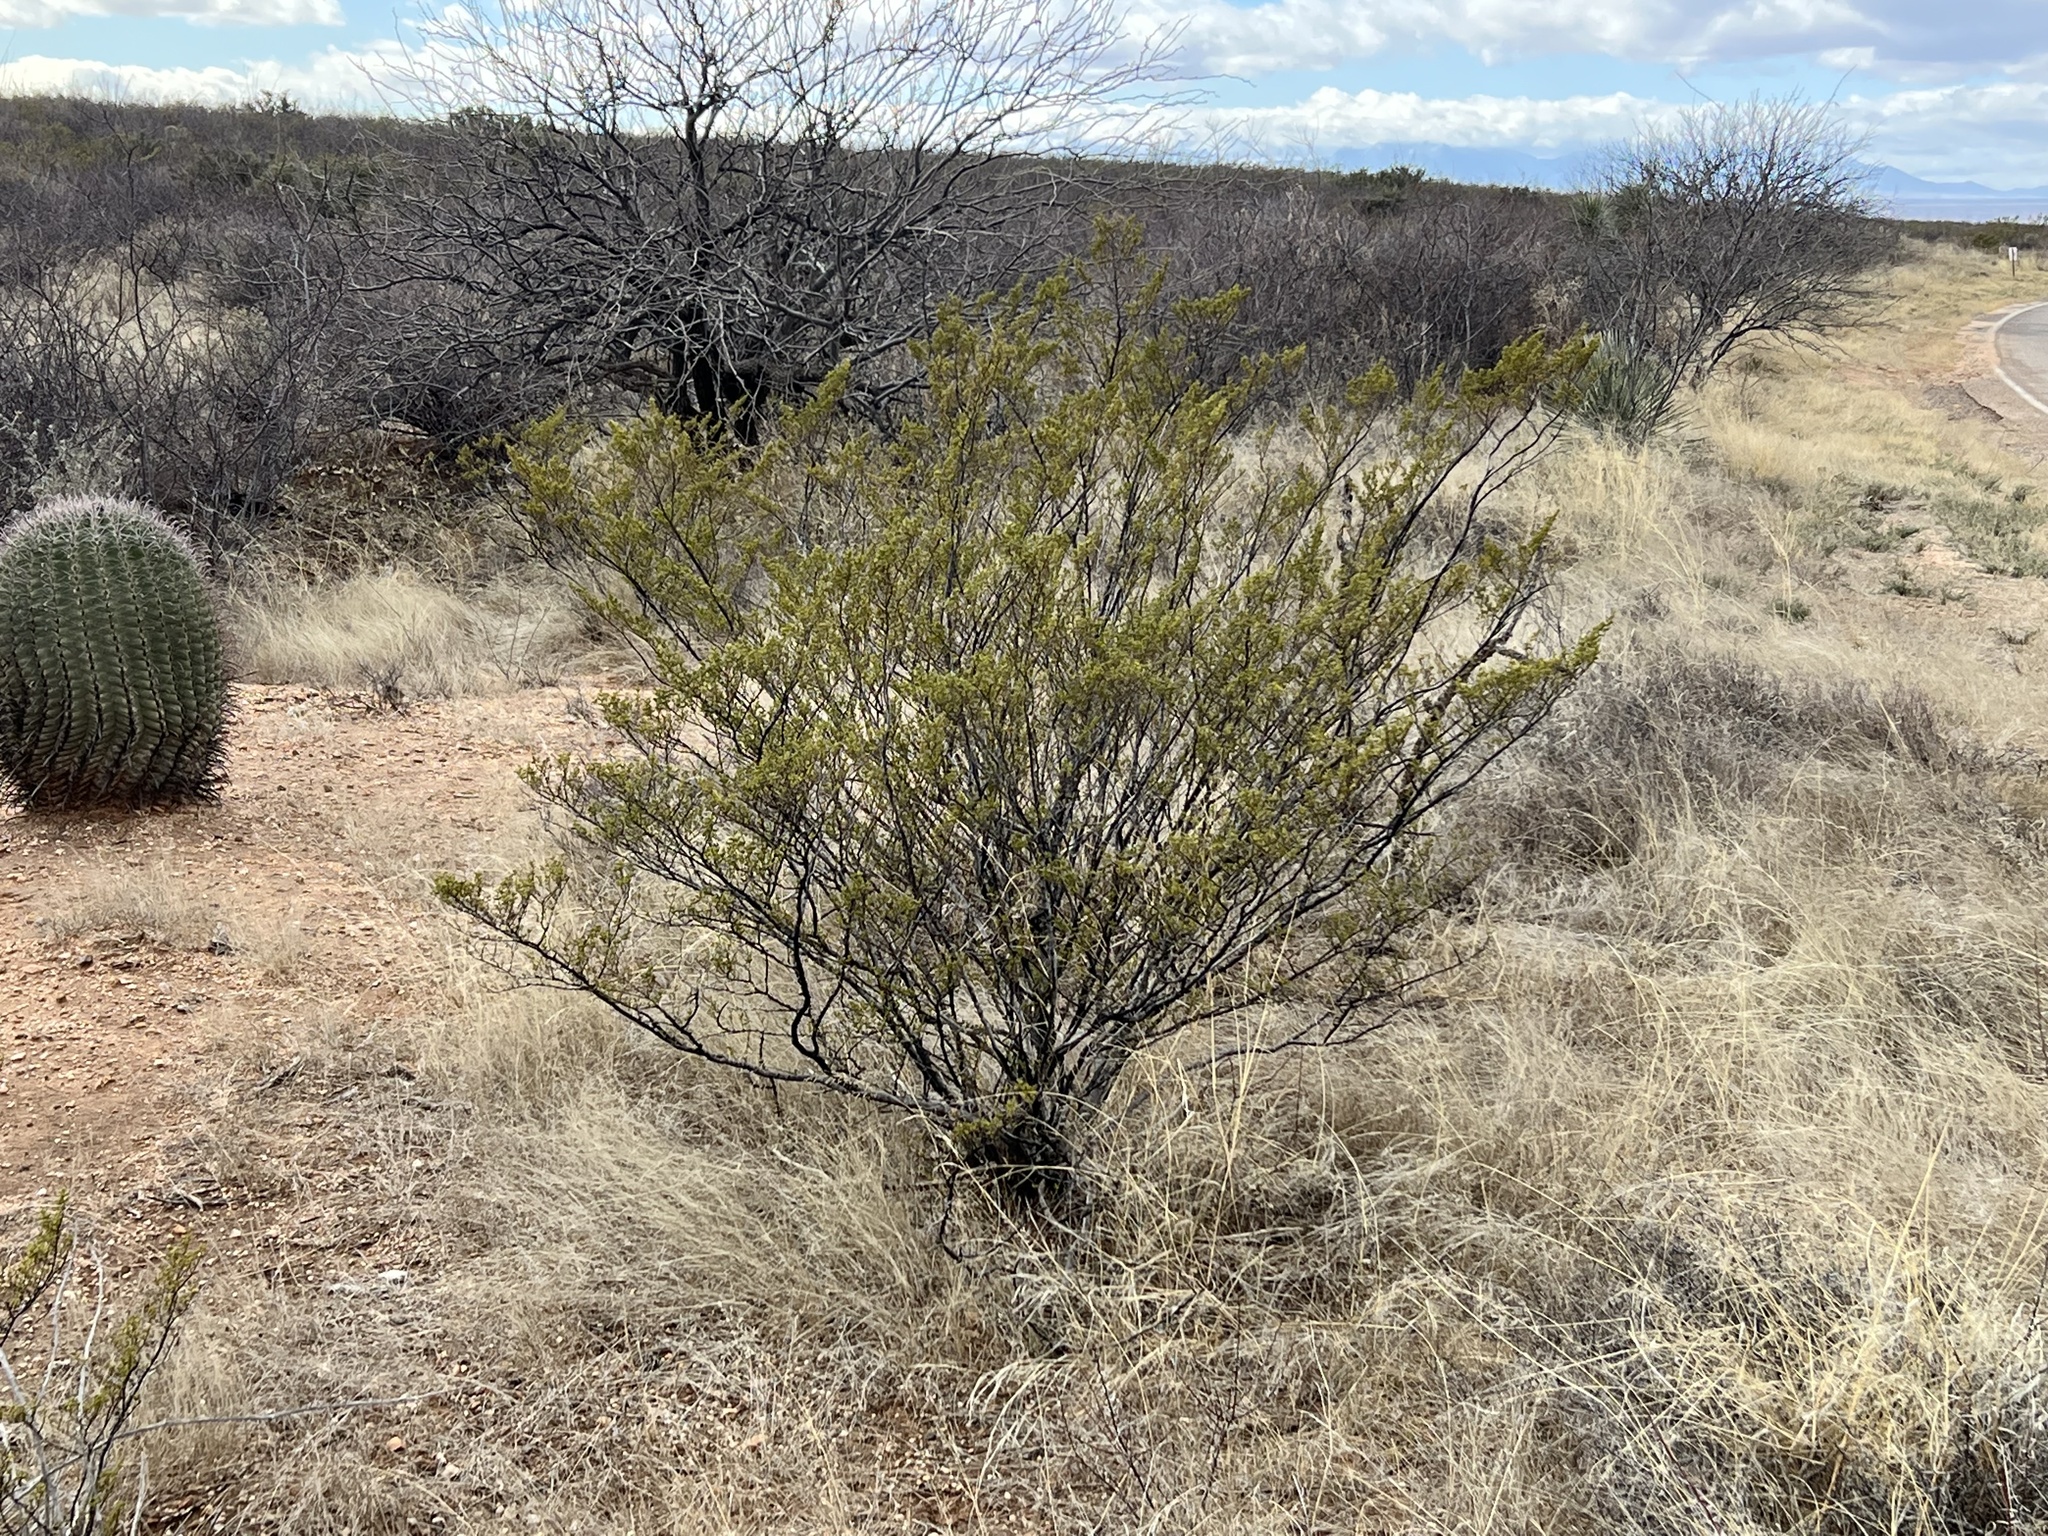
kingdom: Plantae
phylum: Tracheophyta
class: Magnoliopsida
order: Zygophyllales
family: Zygophyllaceae
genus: Larrea
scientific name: Larrea tridentata
